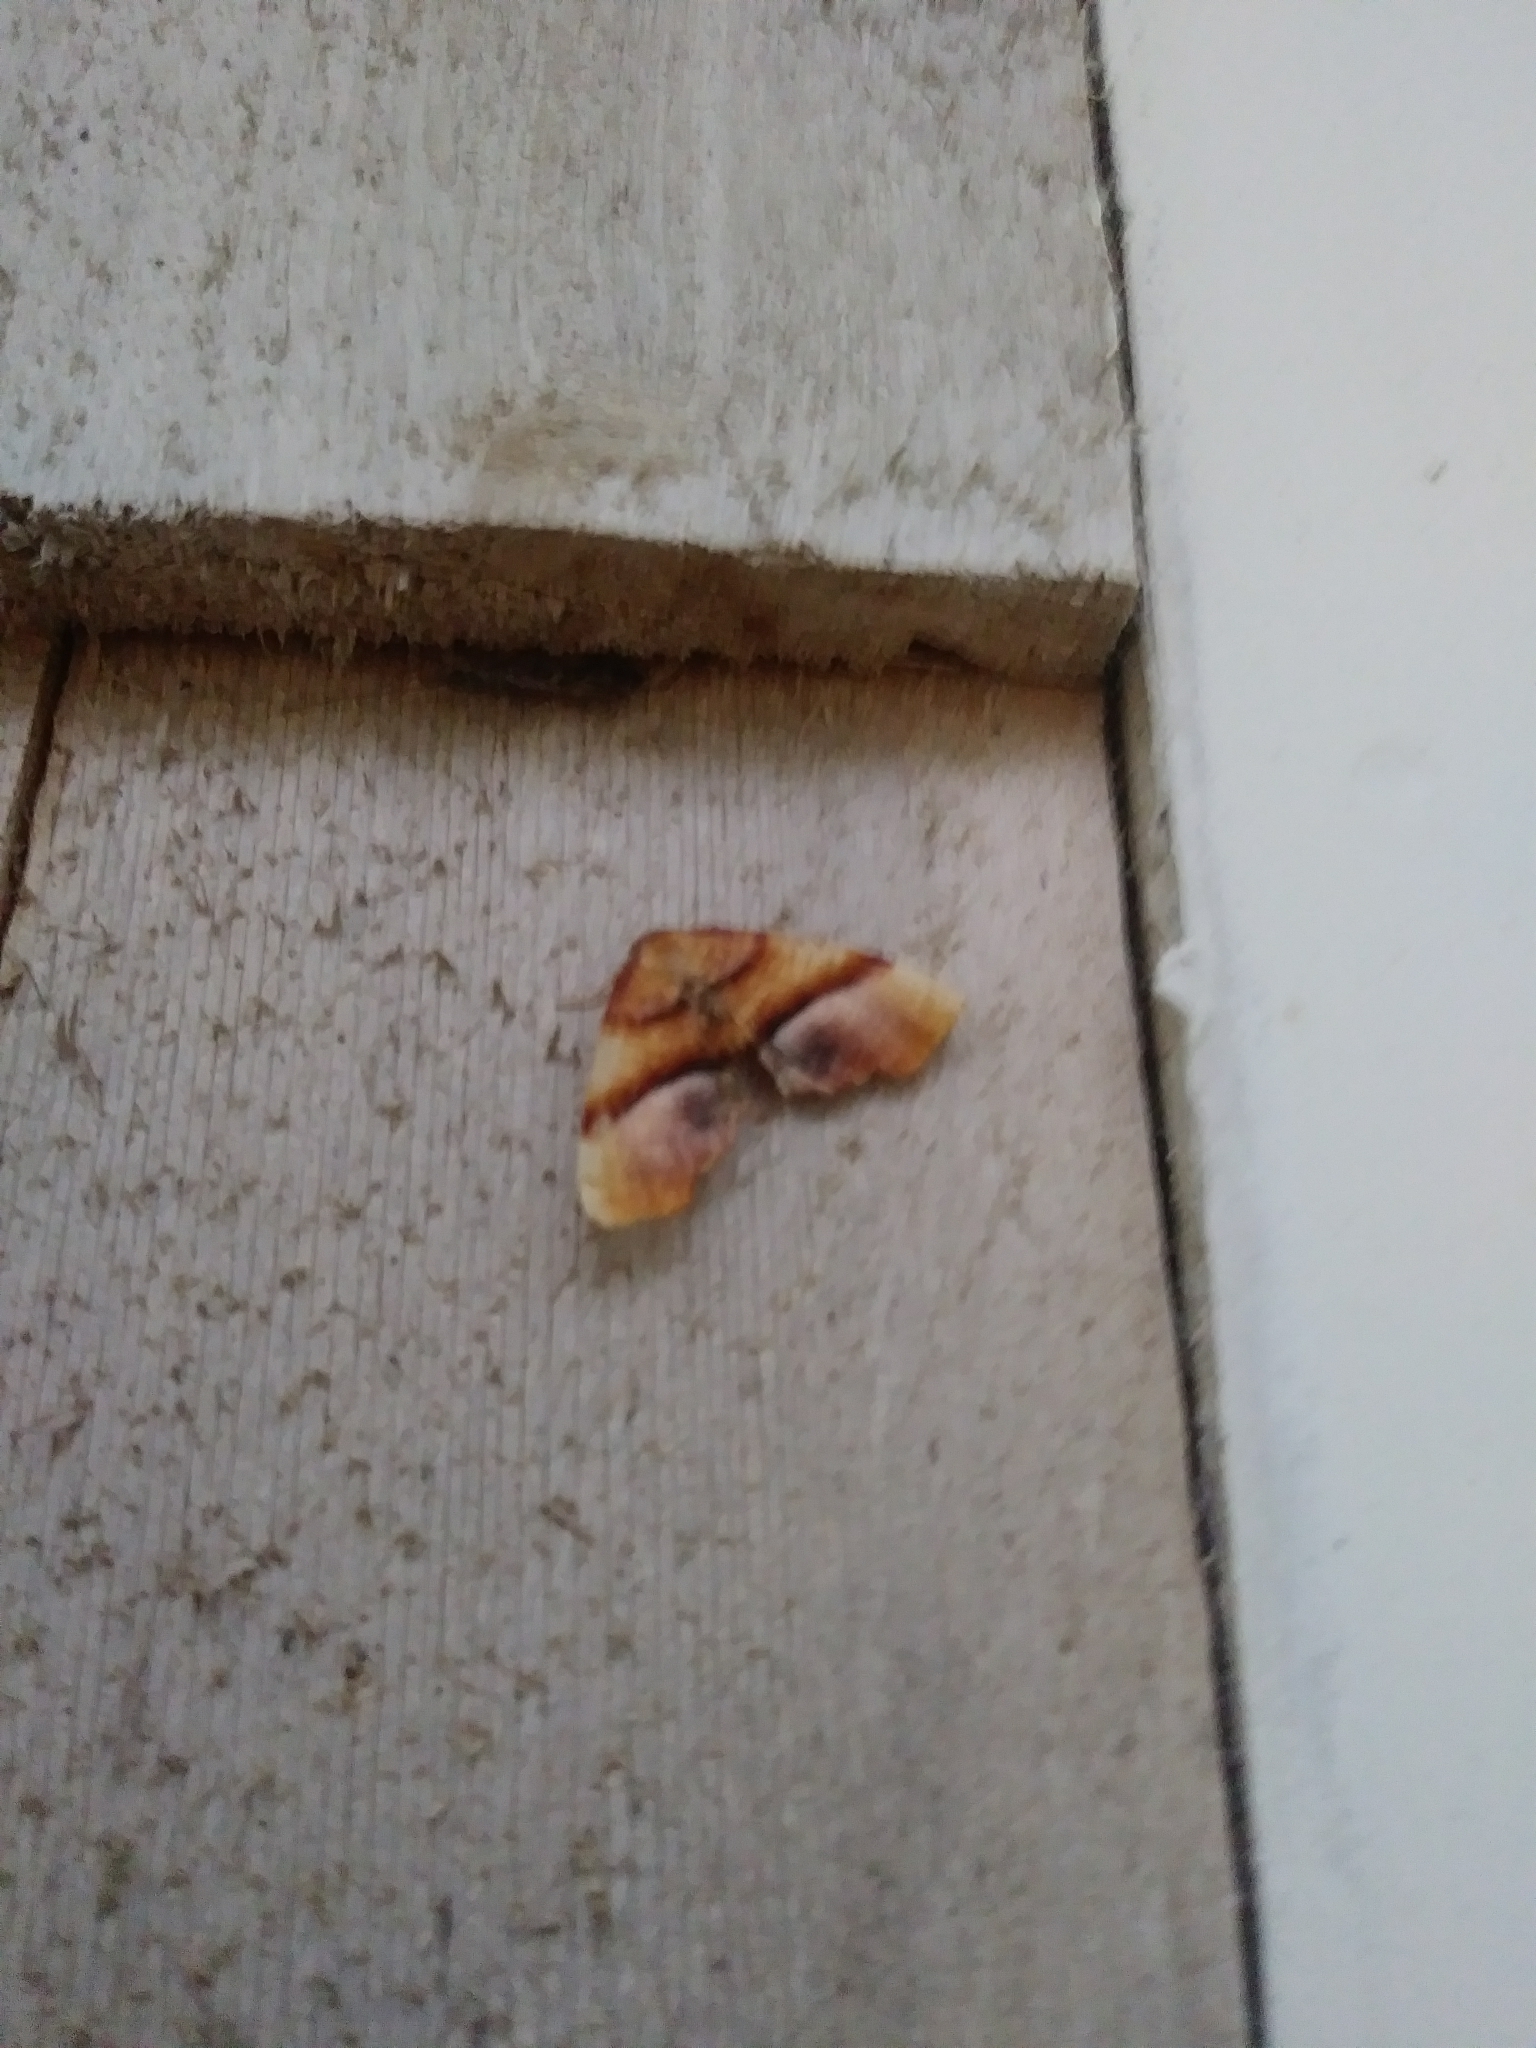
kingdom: Animalia
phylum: Arthropoda
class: Insecta
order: Lepidoptera
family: Geometridae
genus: Plagodis
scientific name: Plagodis phlogosaria
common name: Straight-lined plagodis
